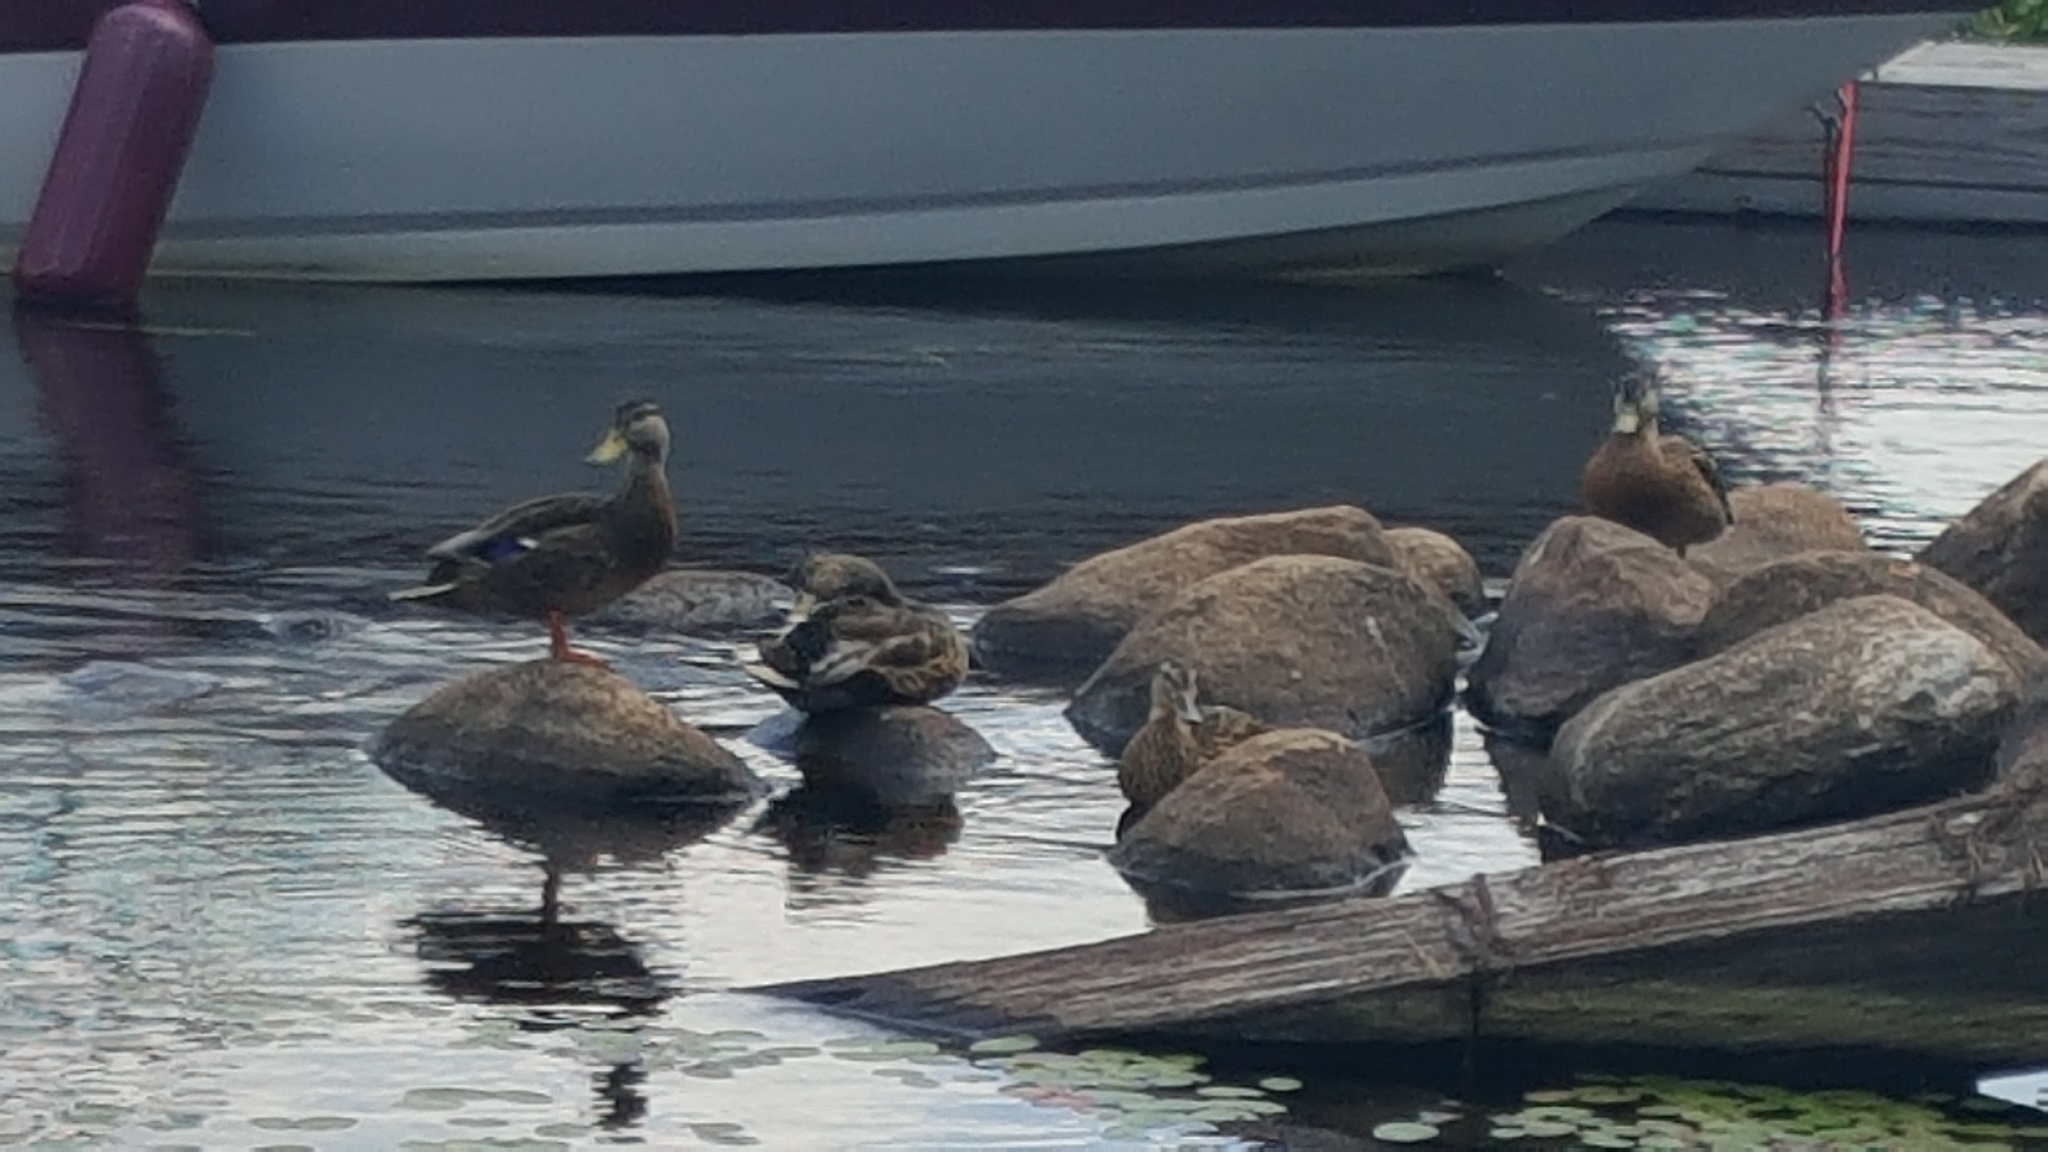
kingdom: Animalia
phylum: Chordata
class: Aves
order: Anseriformes
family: Anatidae
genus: Anas
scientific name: Anas platyrhynchos
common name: Mallard
